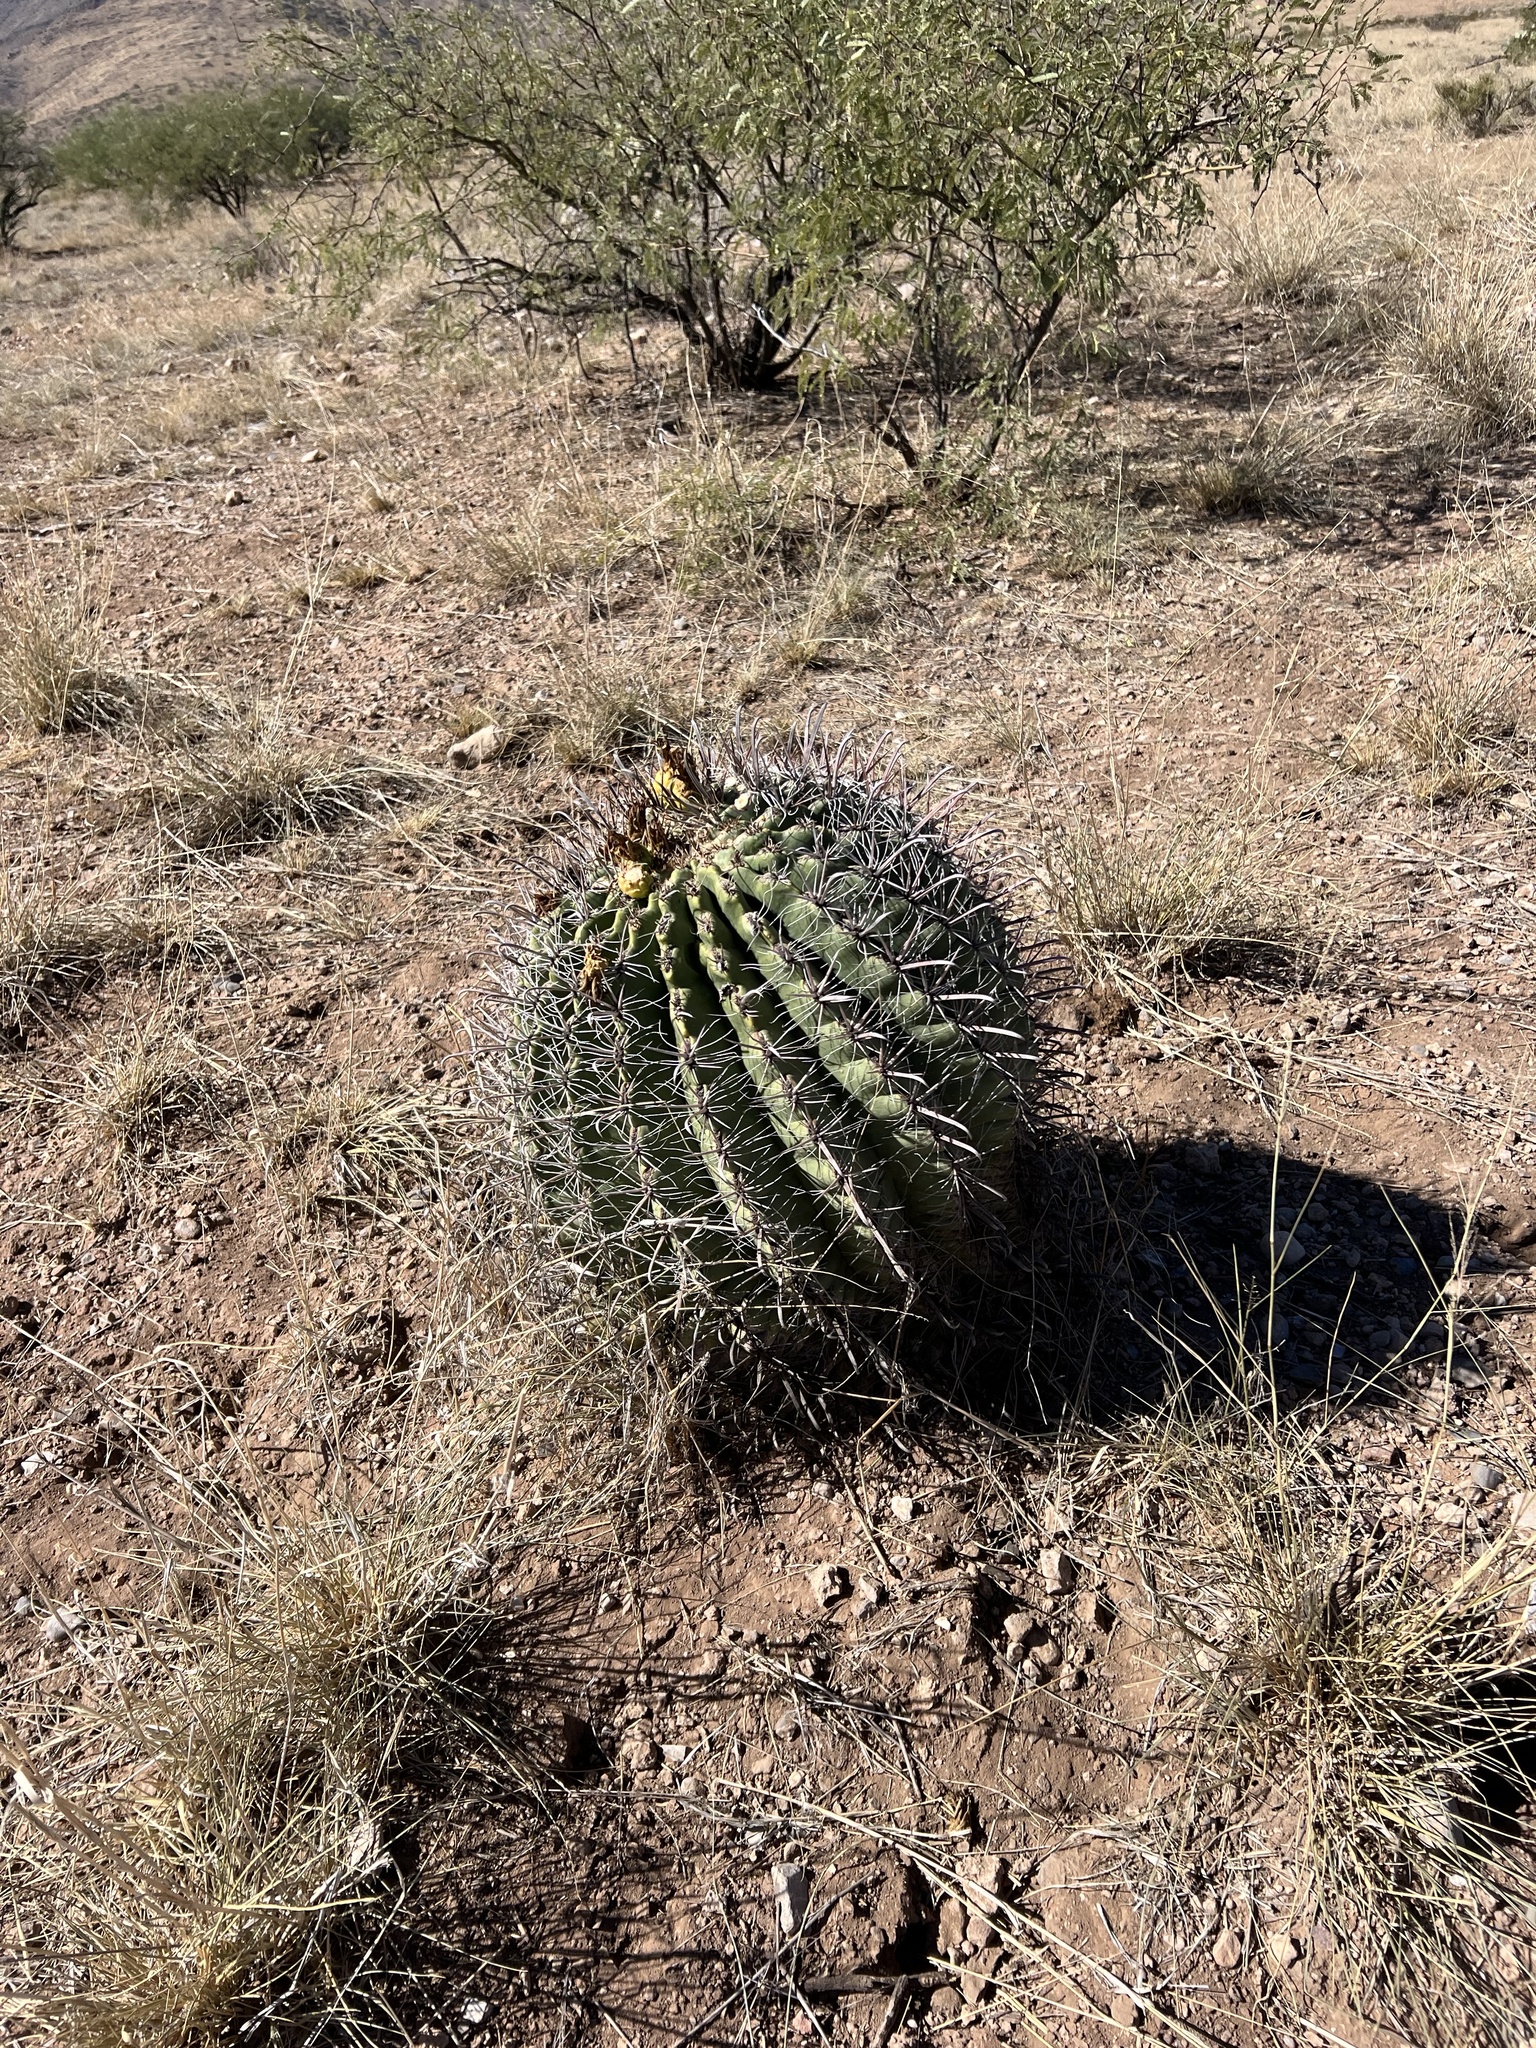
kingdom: Plantae
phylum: Tracheophyta
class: Magnoliopsida
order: Caryophyllales
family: Cactaceae
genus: Ferocactus
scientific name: Ferocactus wislizeni
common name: Candy barrel cactus
